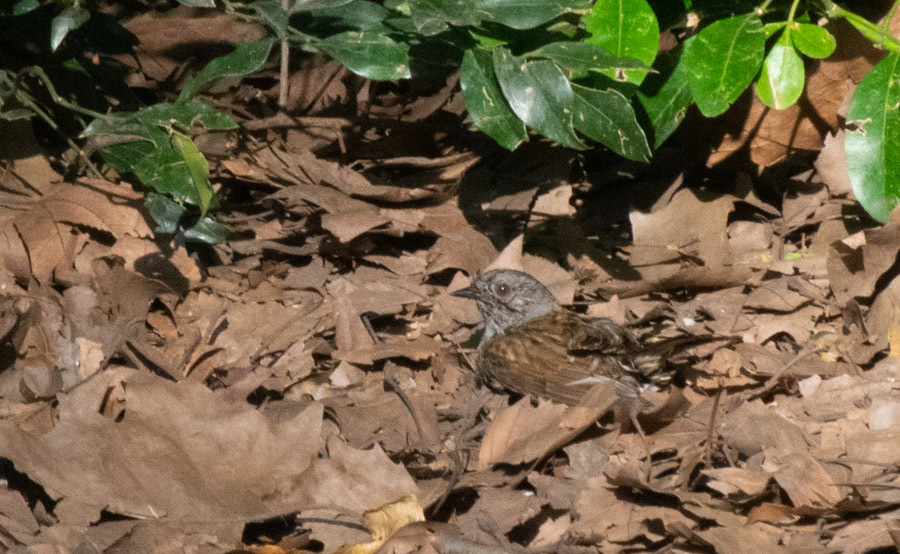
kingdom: Animalia
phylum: Chordata
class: Aves
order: Passeriformes
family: Prunellidae
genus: Prunella
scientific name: Prunella modularis
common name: Dunnock
